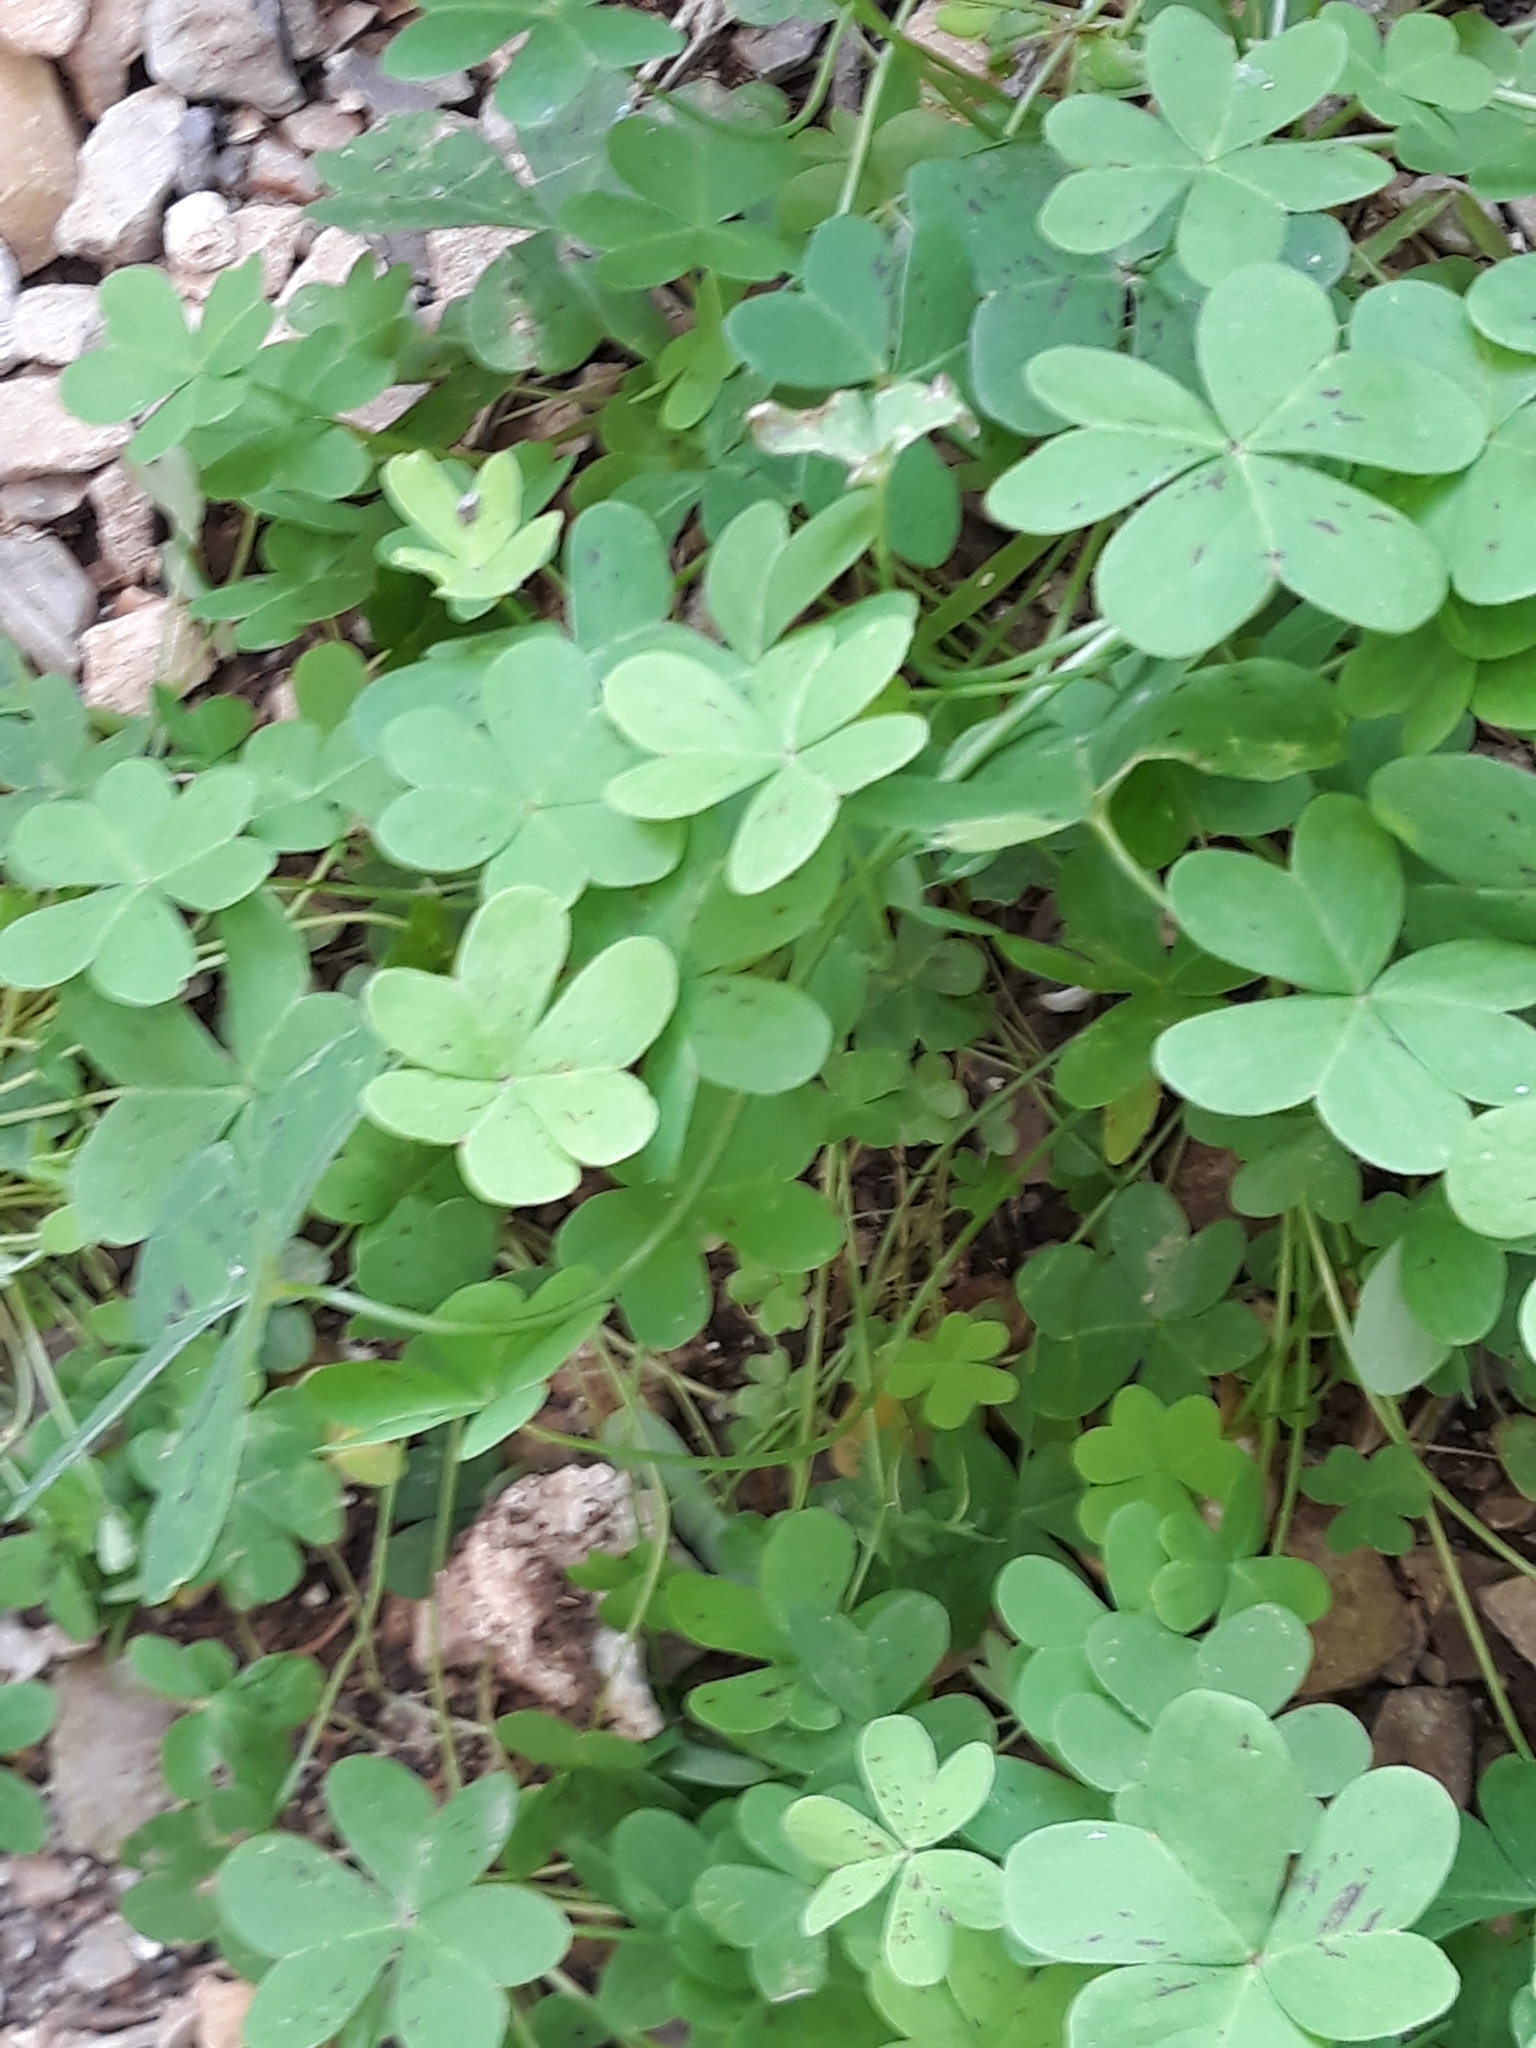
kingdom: Plantae
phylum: Tracheophyta
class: Magnoliopsida
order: Oxalidales
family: Oxalidaceae
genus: Oxalis
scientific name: Oxalis pes-caprae
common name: Bermuda-buttercup
